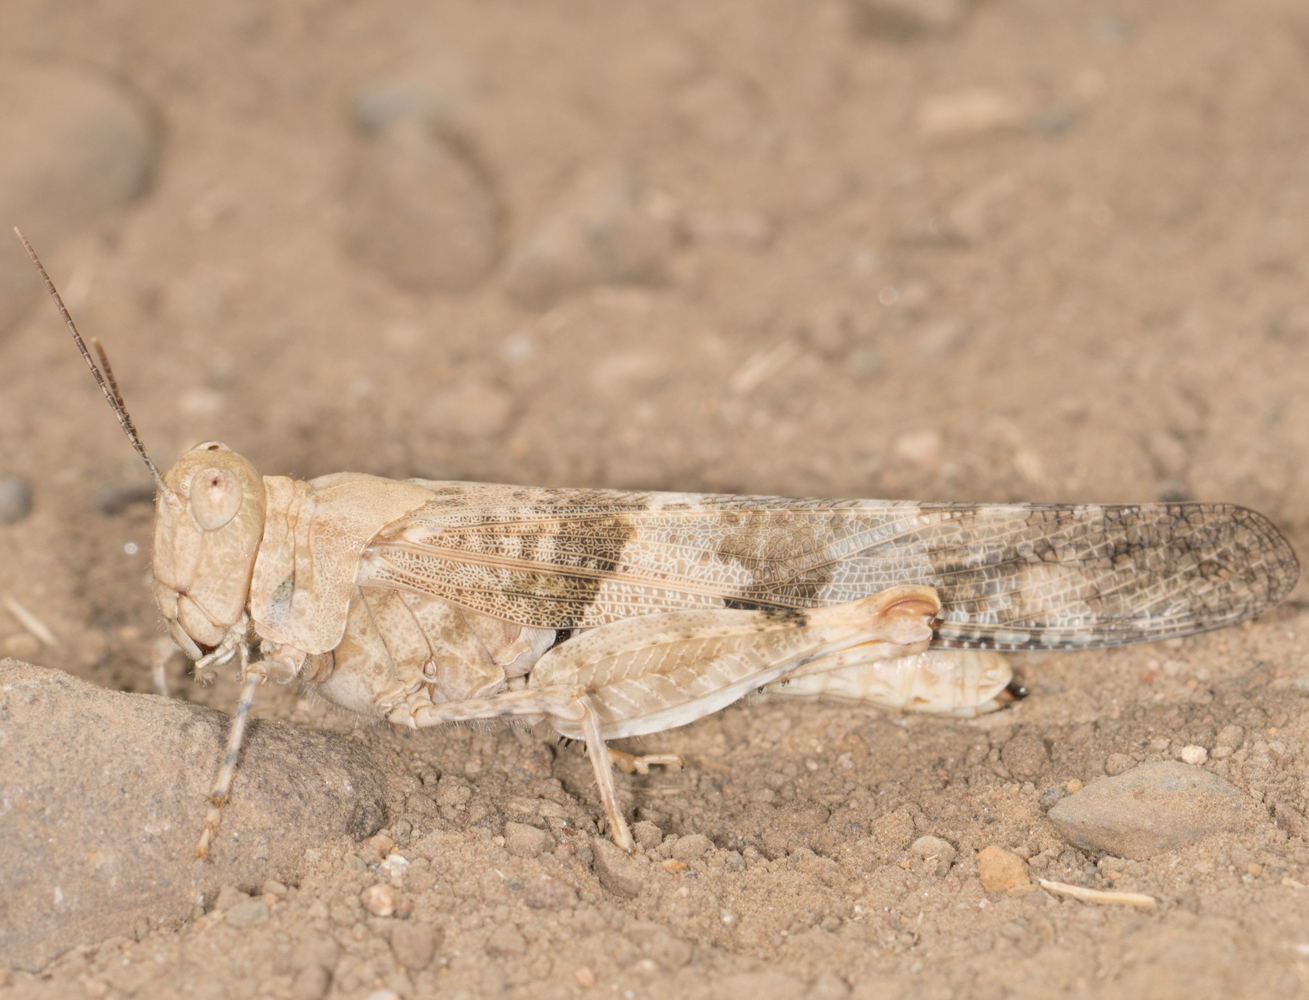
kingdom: Animalia
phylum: Arthropoda
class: Insecta
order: Orthoptera
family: Acrididae
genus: Trimerotropis
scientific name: Trimerotropis pallidipennis
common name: Pallid-winged grasshopper
